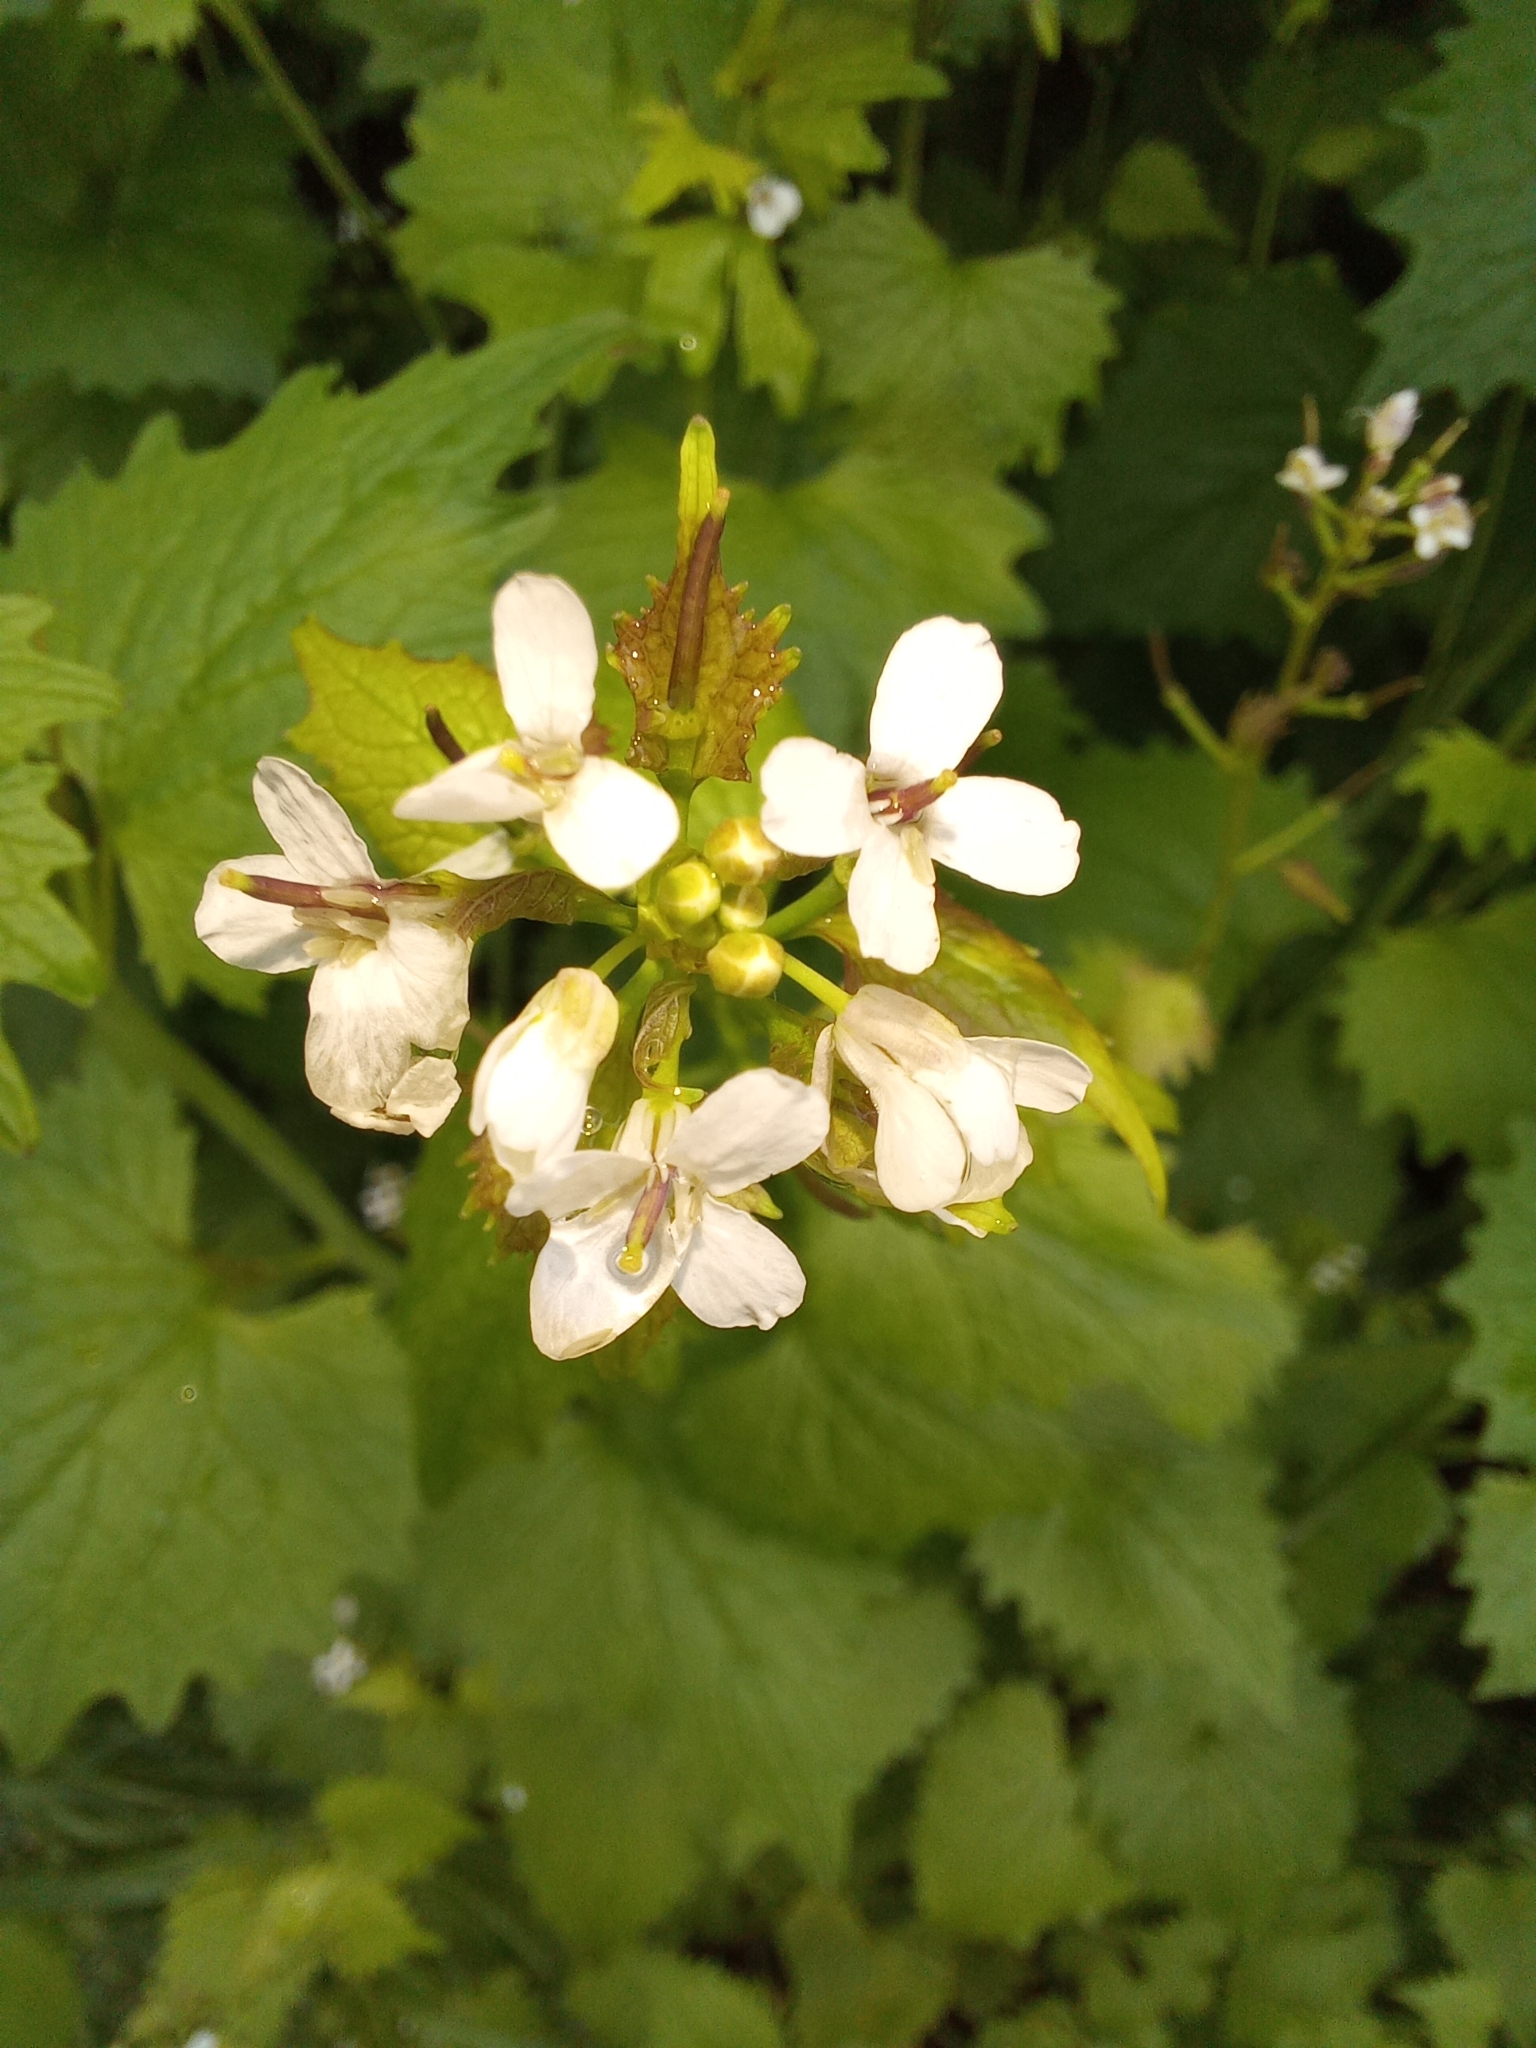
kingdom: Plantae
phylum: Tracheophyta
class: Magnoliopsida
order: Brassicales
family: Brassicaceae
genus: Alliaria
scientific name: Alliaria petiolata
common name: Garlic mustard
